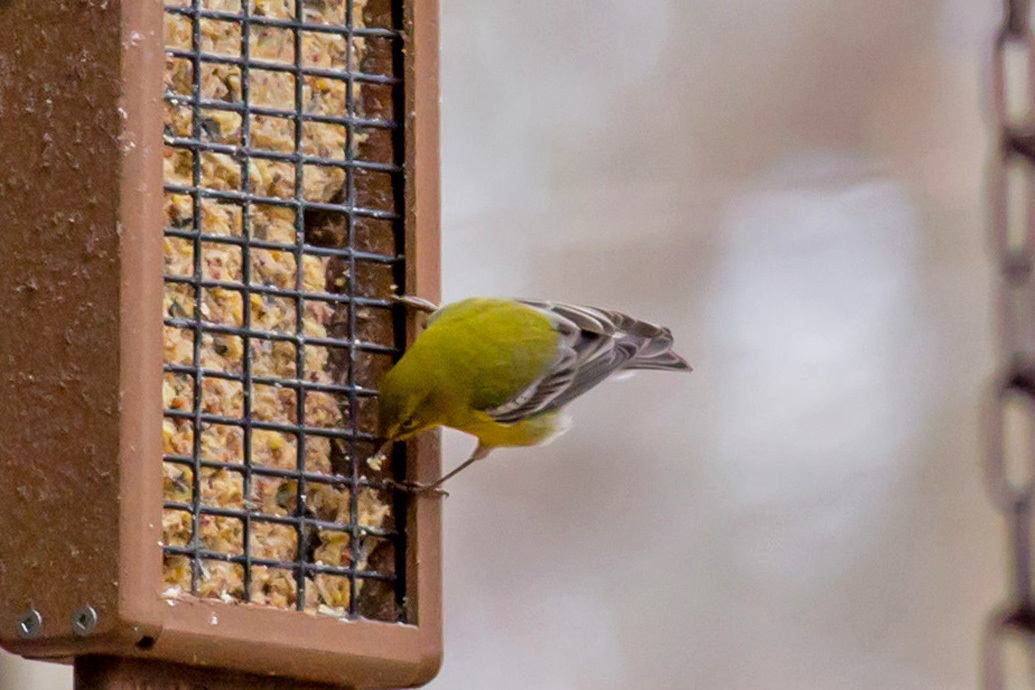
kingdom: Animalia
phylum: Chordata
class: Aves
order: Passeriformes
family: Parulidae
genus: Setophaga
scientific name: Setophaga pinus
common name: Pine warbler
